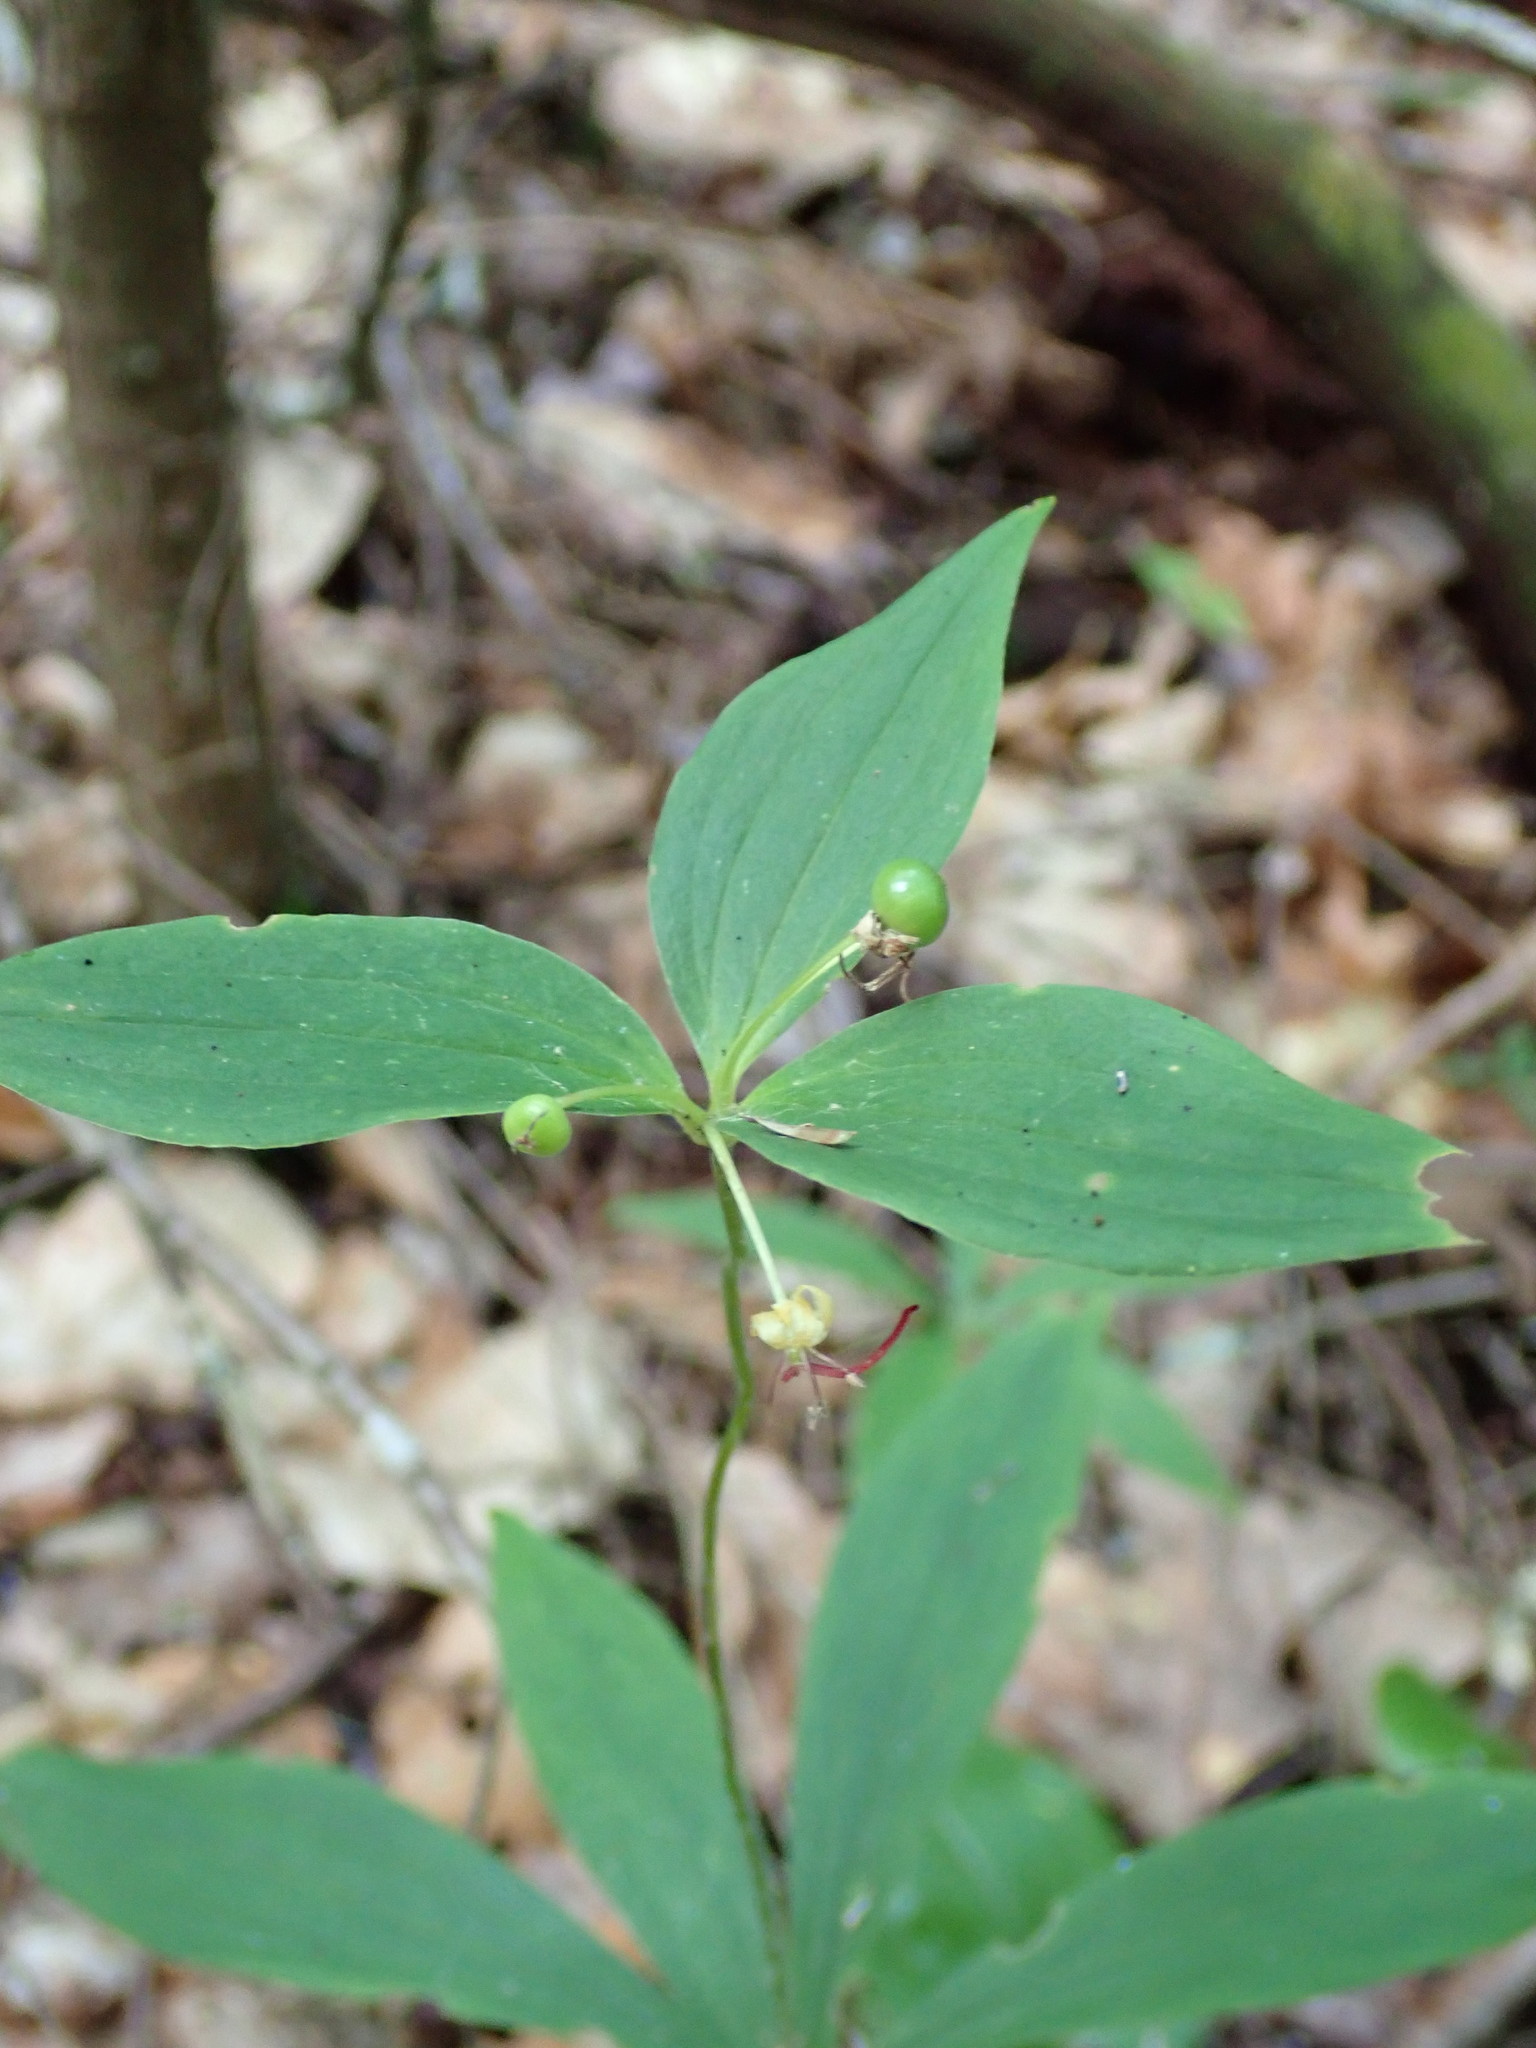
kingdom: Plantae
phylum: Tracheophyta
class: Liliopsida
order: Liliales
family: Liliaceae
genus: Medeola
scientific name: Medeola virginiana
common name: Indian cucumber-root
